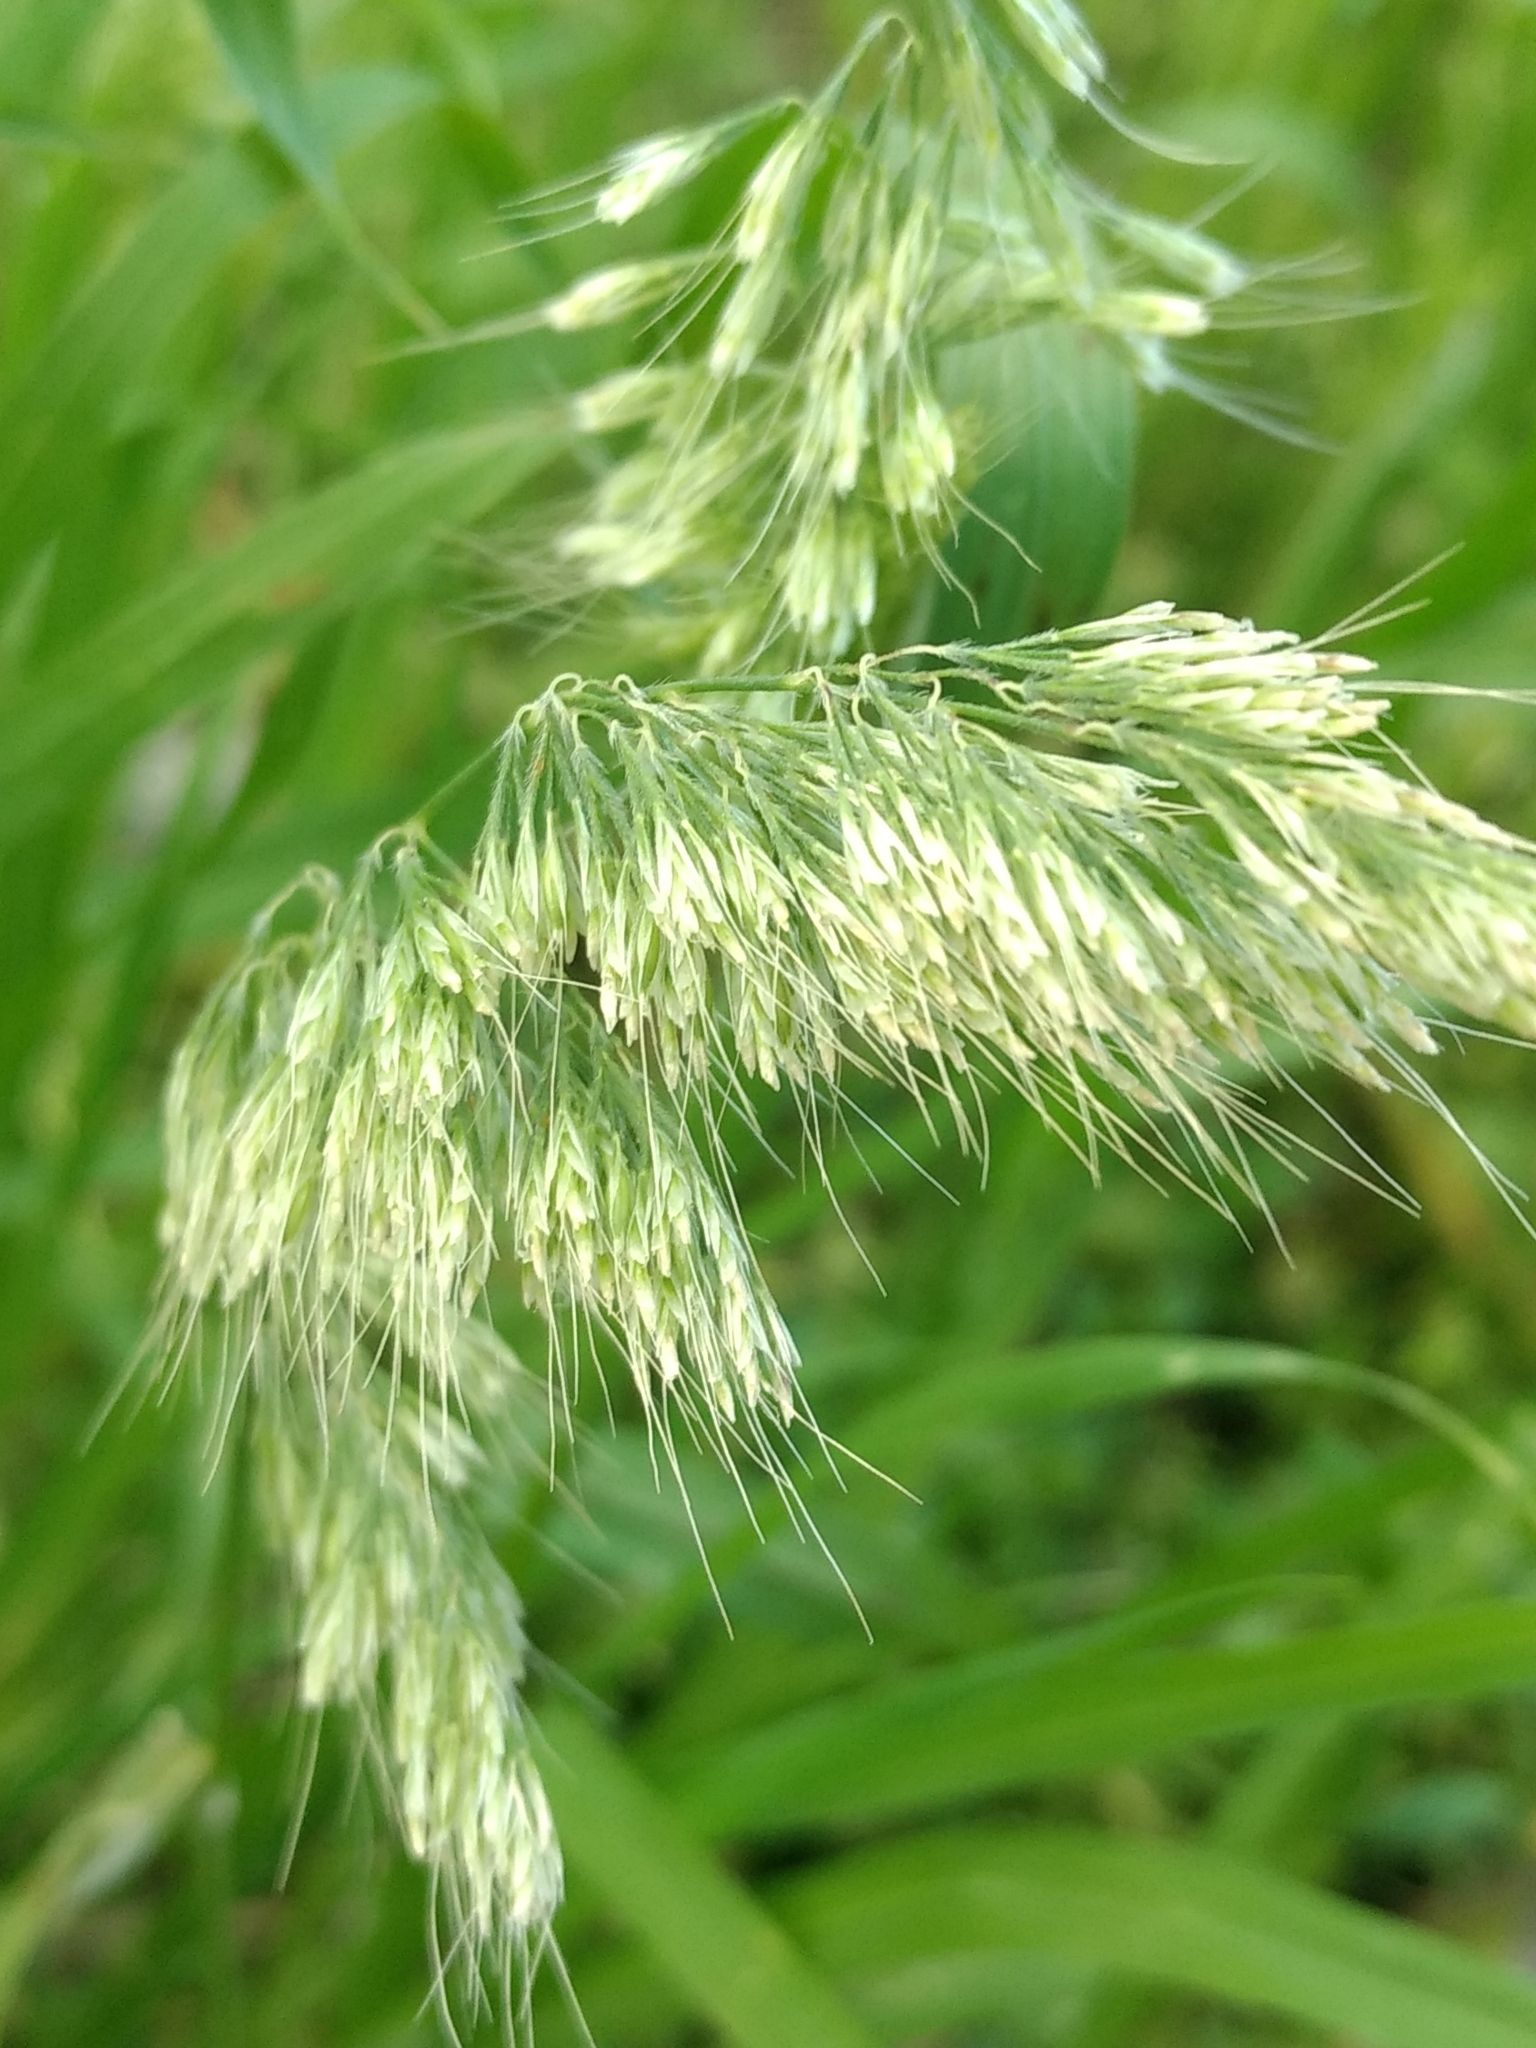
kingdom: Plantae
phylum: Tracheophyta
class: Liliopsida
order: Poales
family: Poaceae
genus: Lamarckia
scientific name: Lamarckia aurea
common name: Golden dog's-tail
